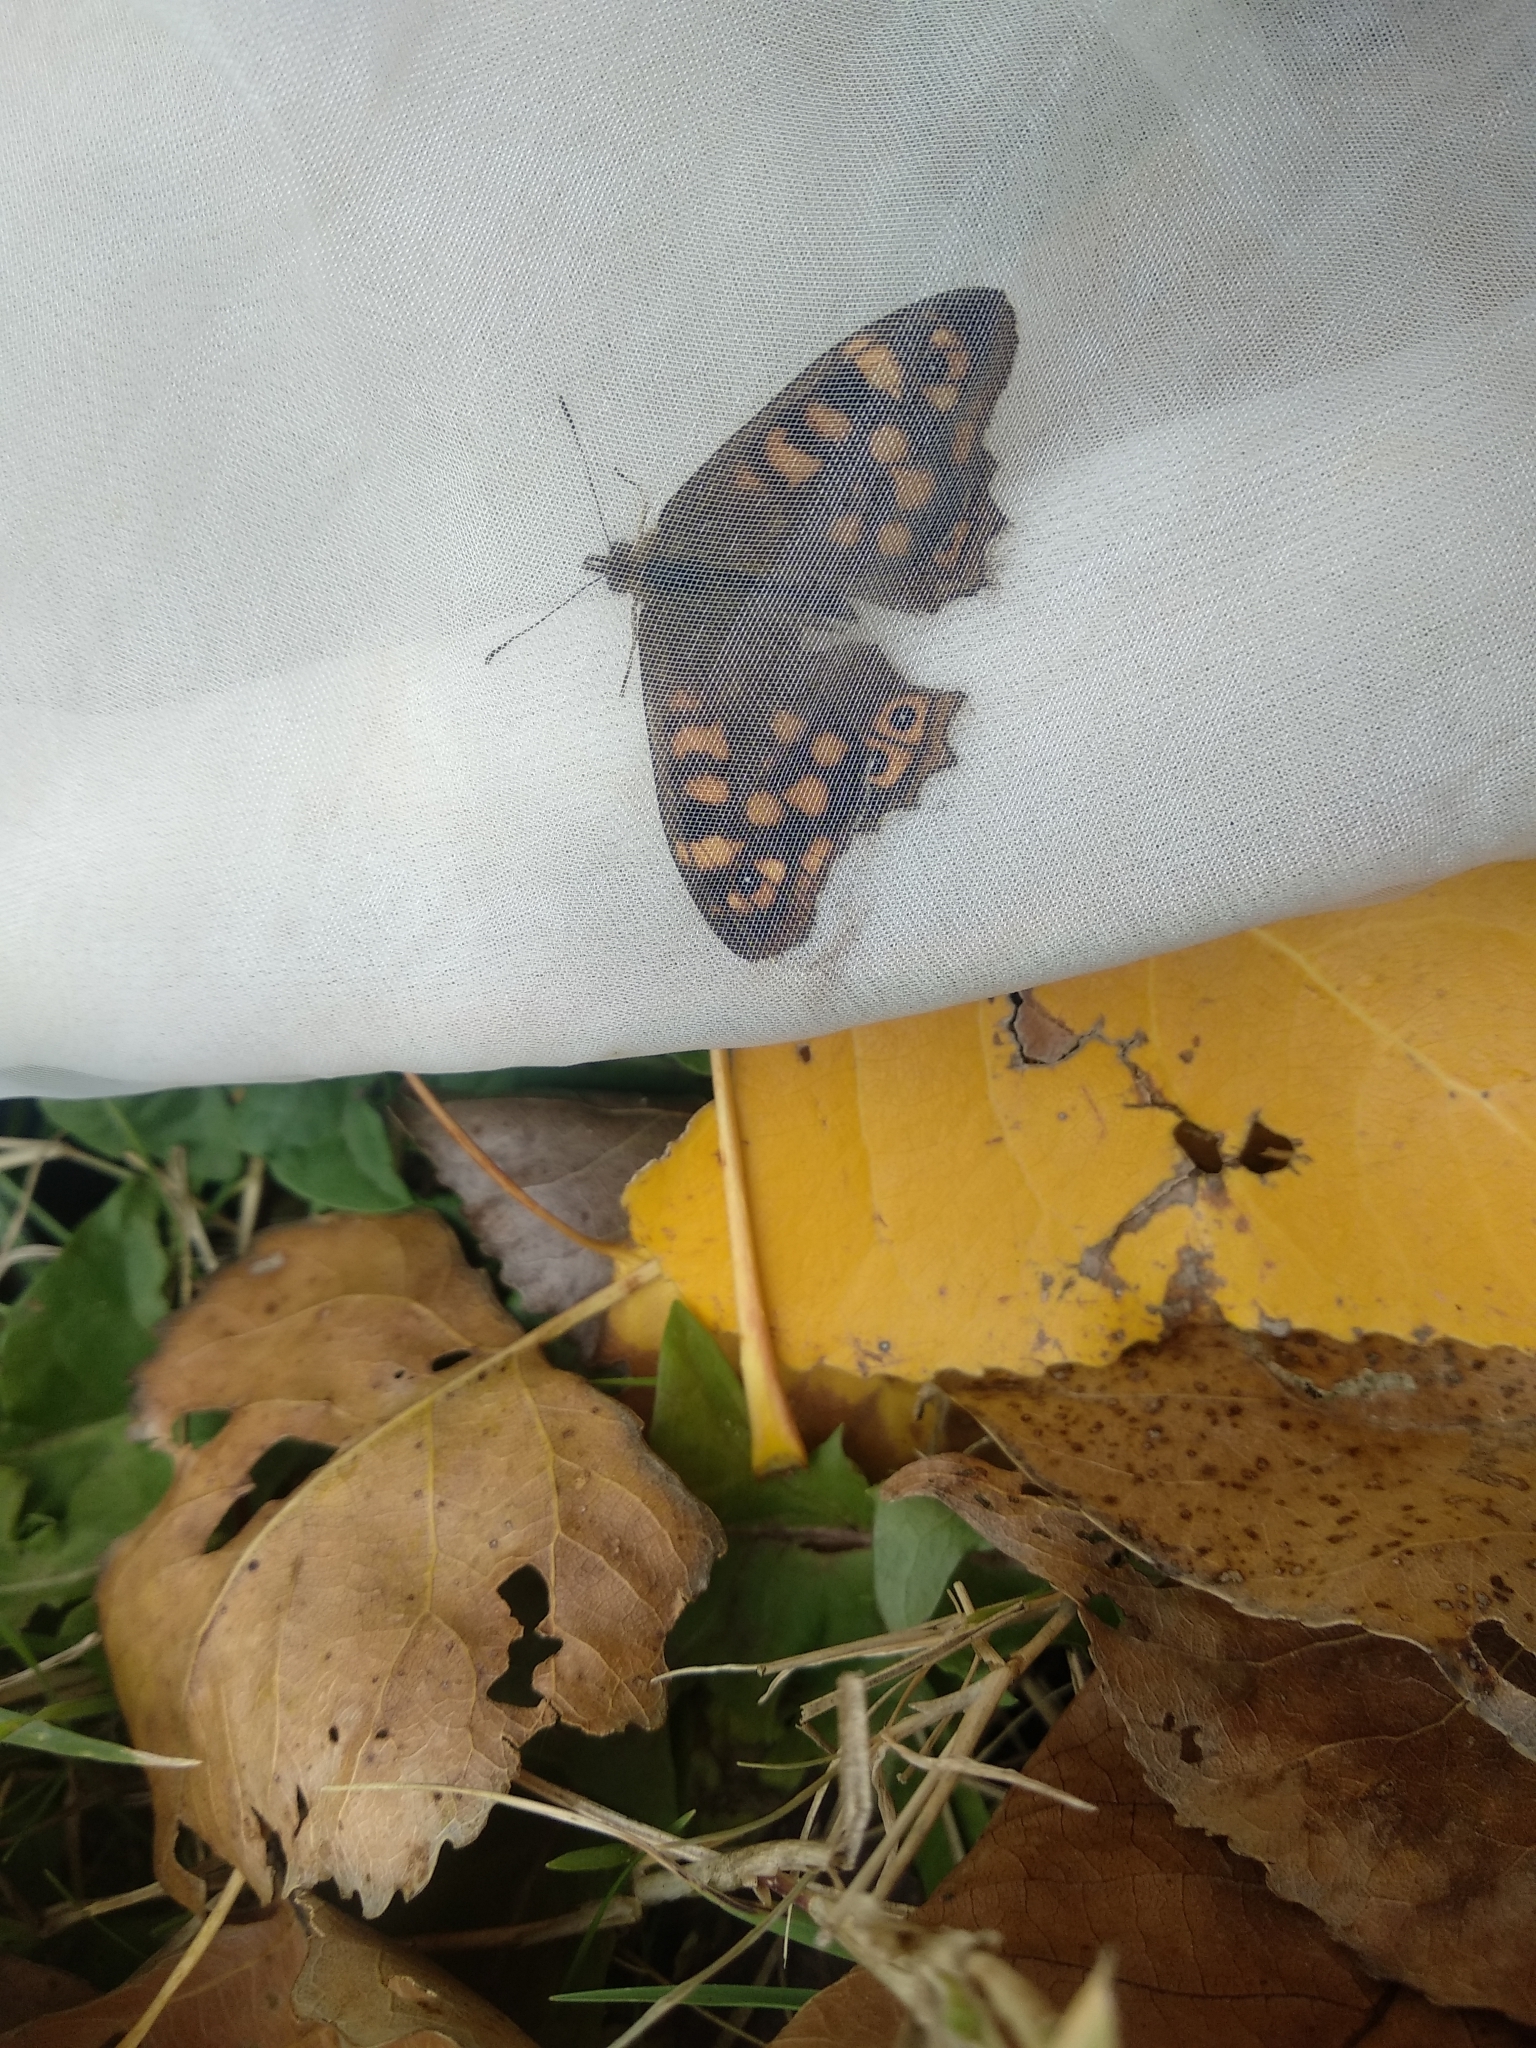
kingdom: Animalia
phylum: Arthropoda
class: Insecta
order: Lepidoptera
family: Nymphalidae
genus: Pararge
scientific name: Pararge aegeria
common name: Speckled wood
